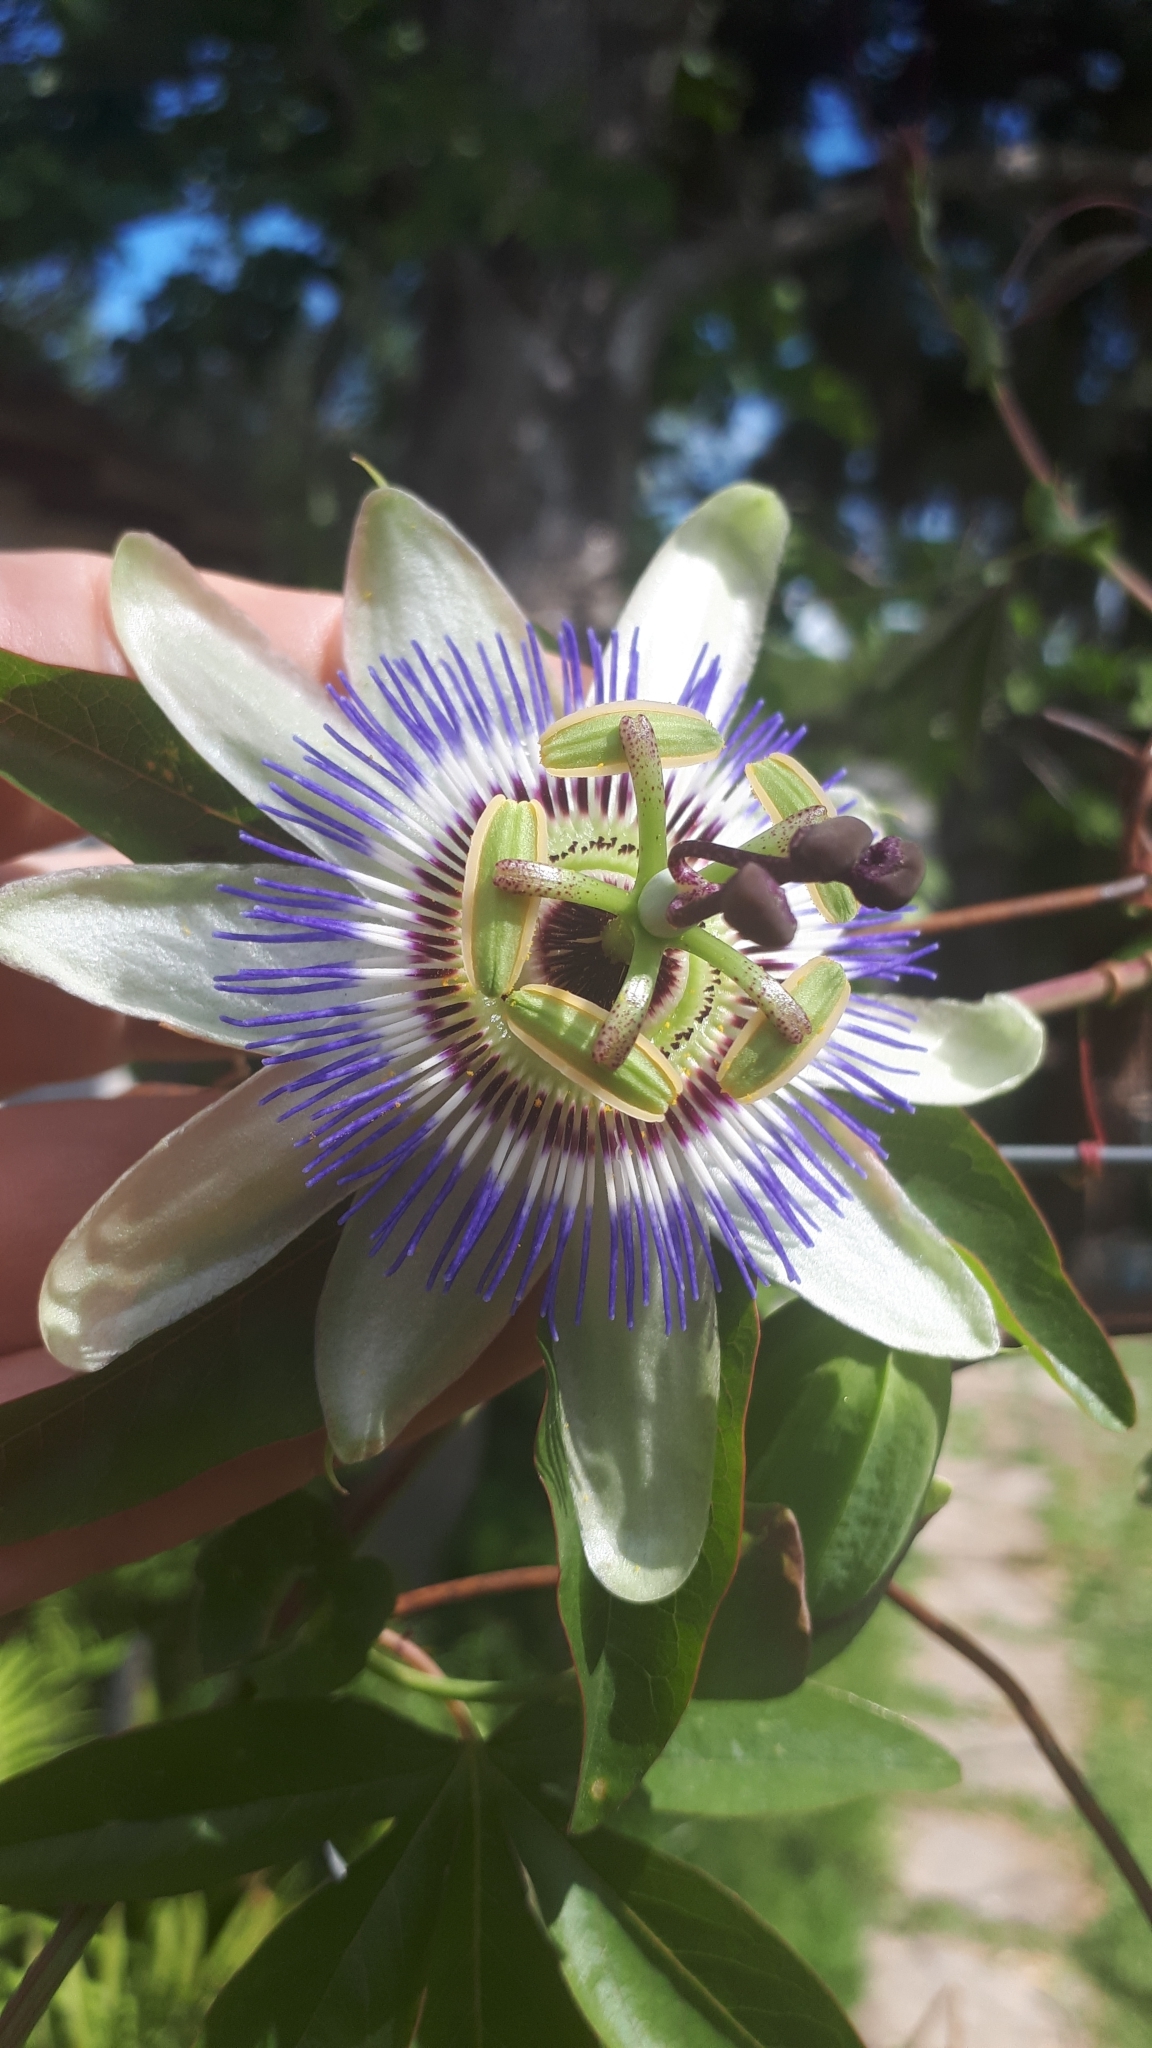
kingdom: Plantae
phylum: Tracheophyta
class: Magnoliopsida
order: Malpighiales
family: Passifloraceae
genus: Passiflora
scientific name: Passiflora caerulea
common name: Blue passionflower
